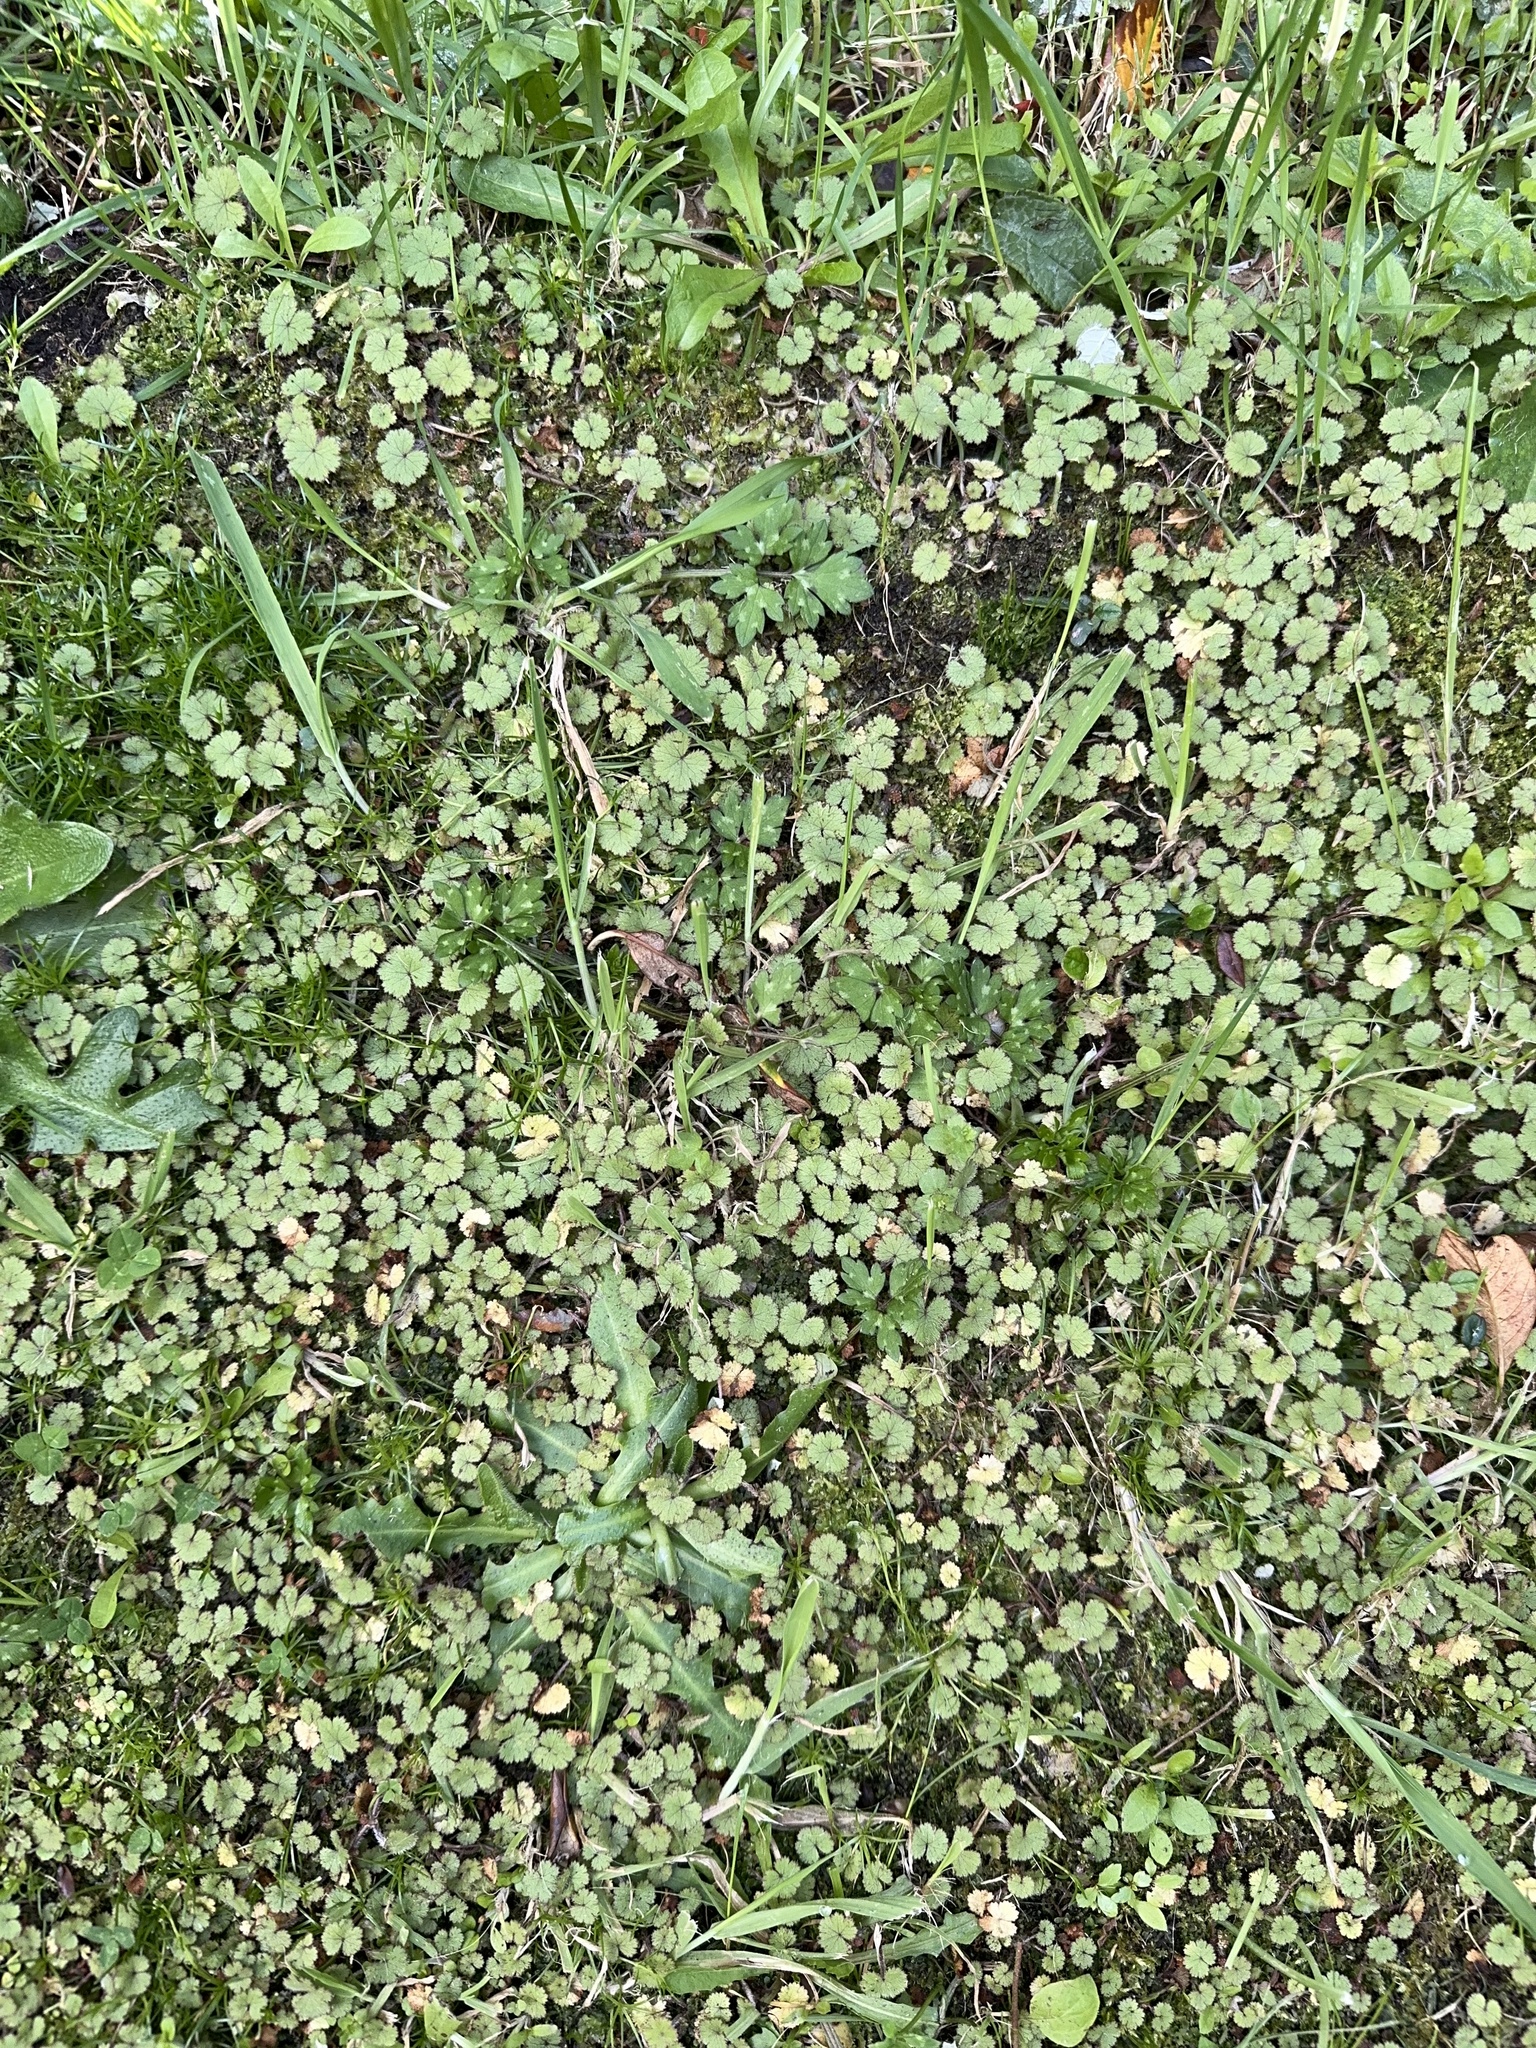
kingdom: Plantae
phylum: Tracheophyta
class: Magnoliopsida
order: Apiales
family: Araliaceae
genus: Hydrocotyle
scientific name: Hydrocotyle moschata
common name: Hairy pennywort
